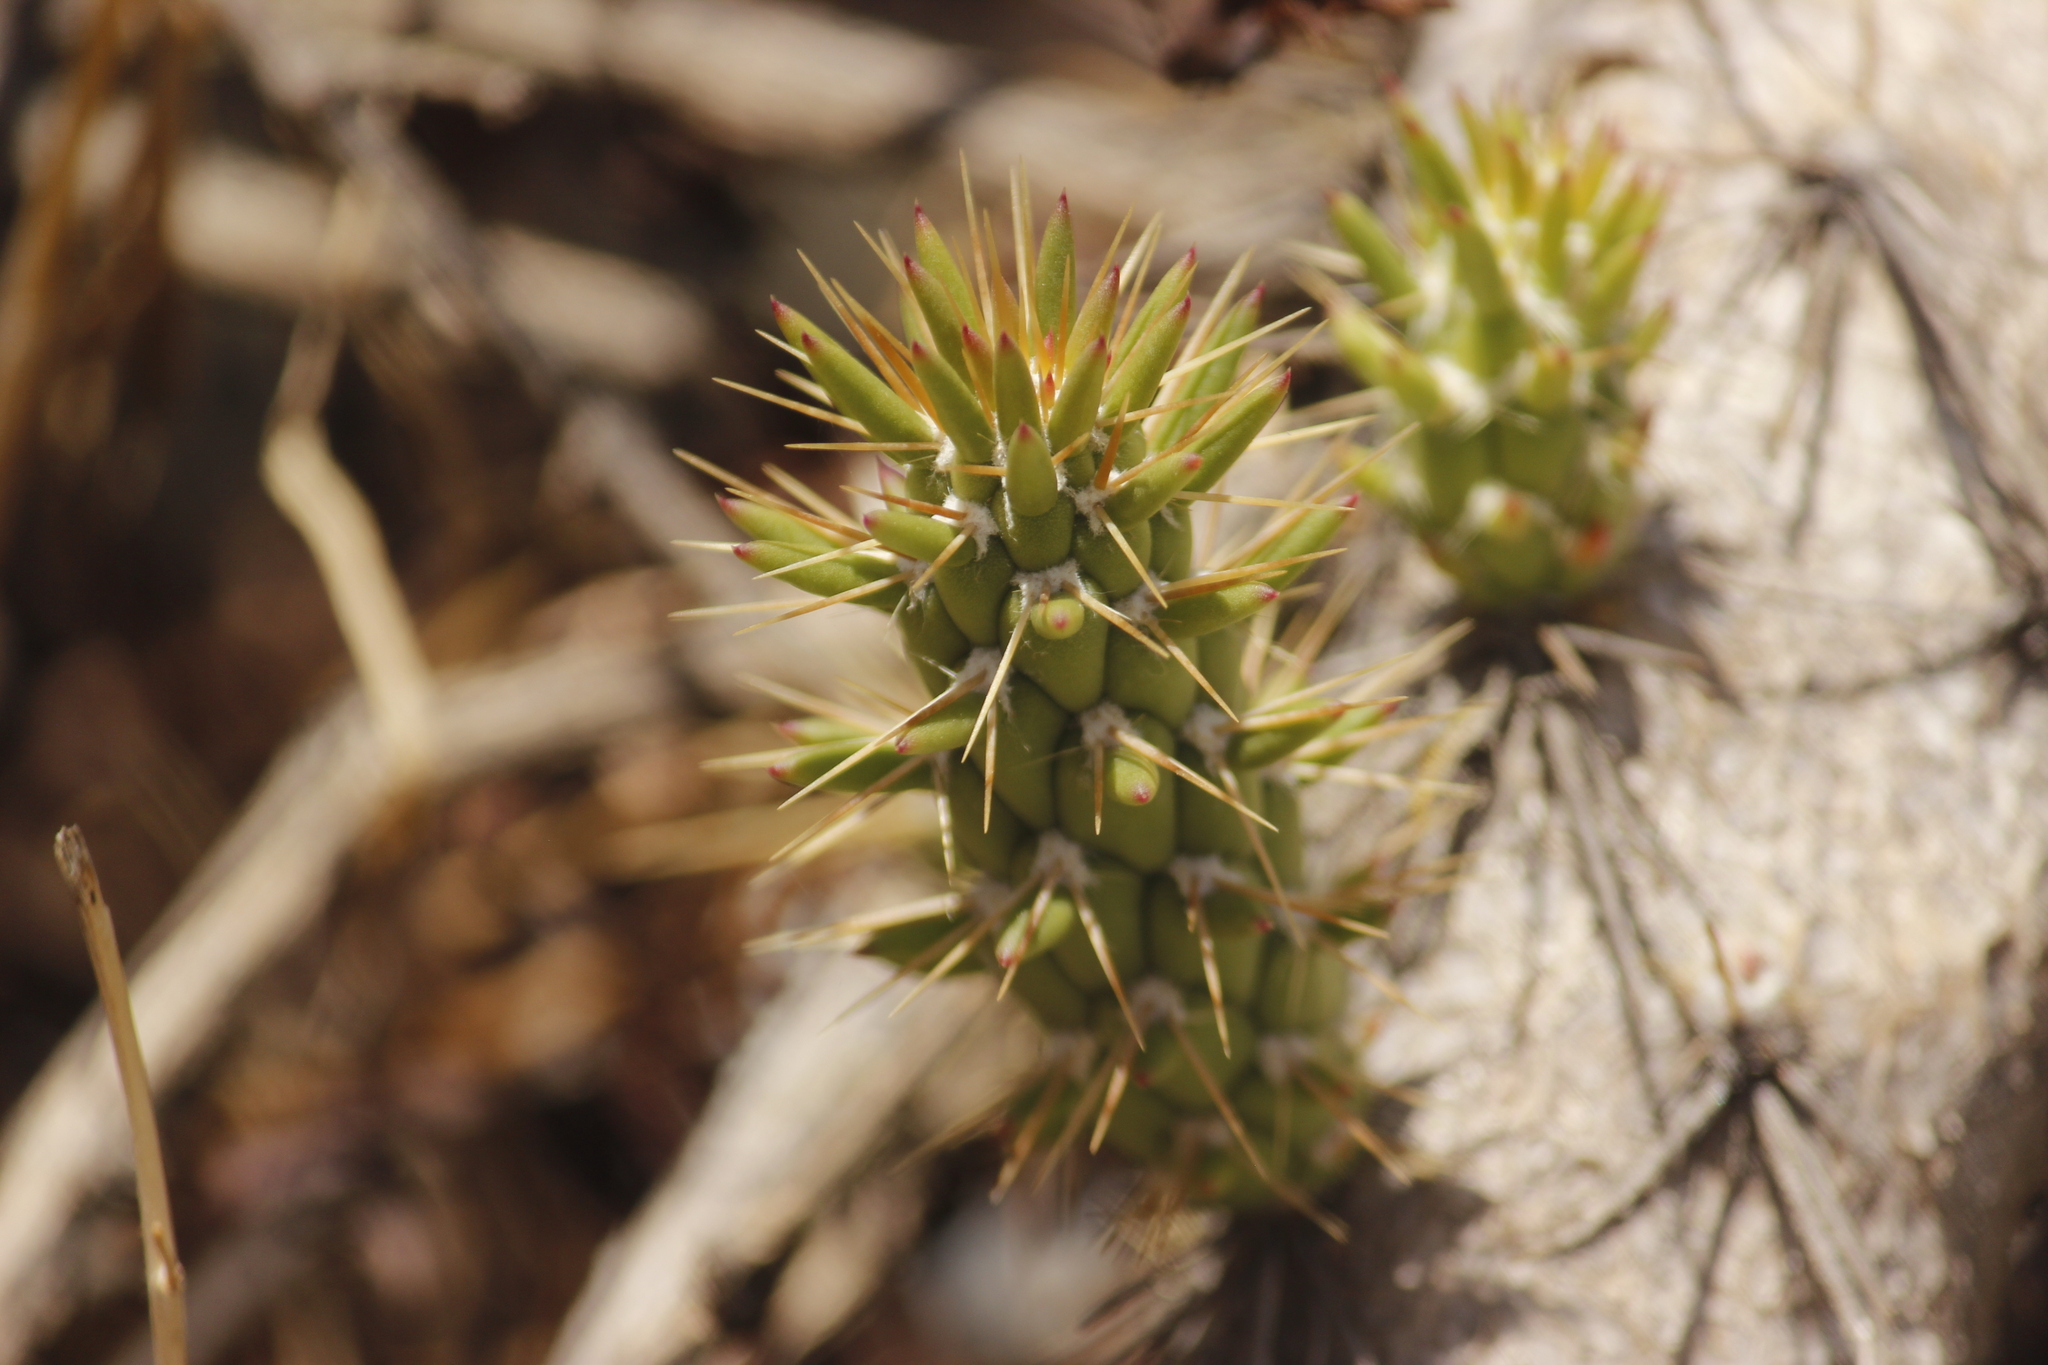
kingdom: Plantae
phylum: Tracheophyta
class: Magnoliopsida
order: Caryophyllales
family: Cactaceae
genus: Austrocylindropuntia
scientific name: Austrocylindropuntia subulata
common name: Eve's needle cactus
